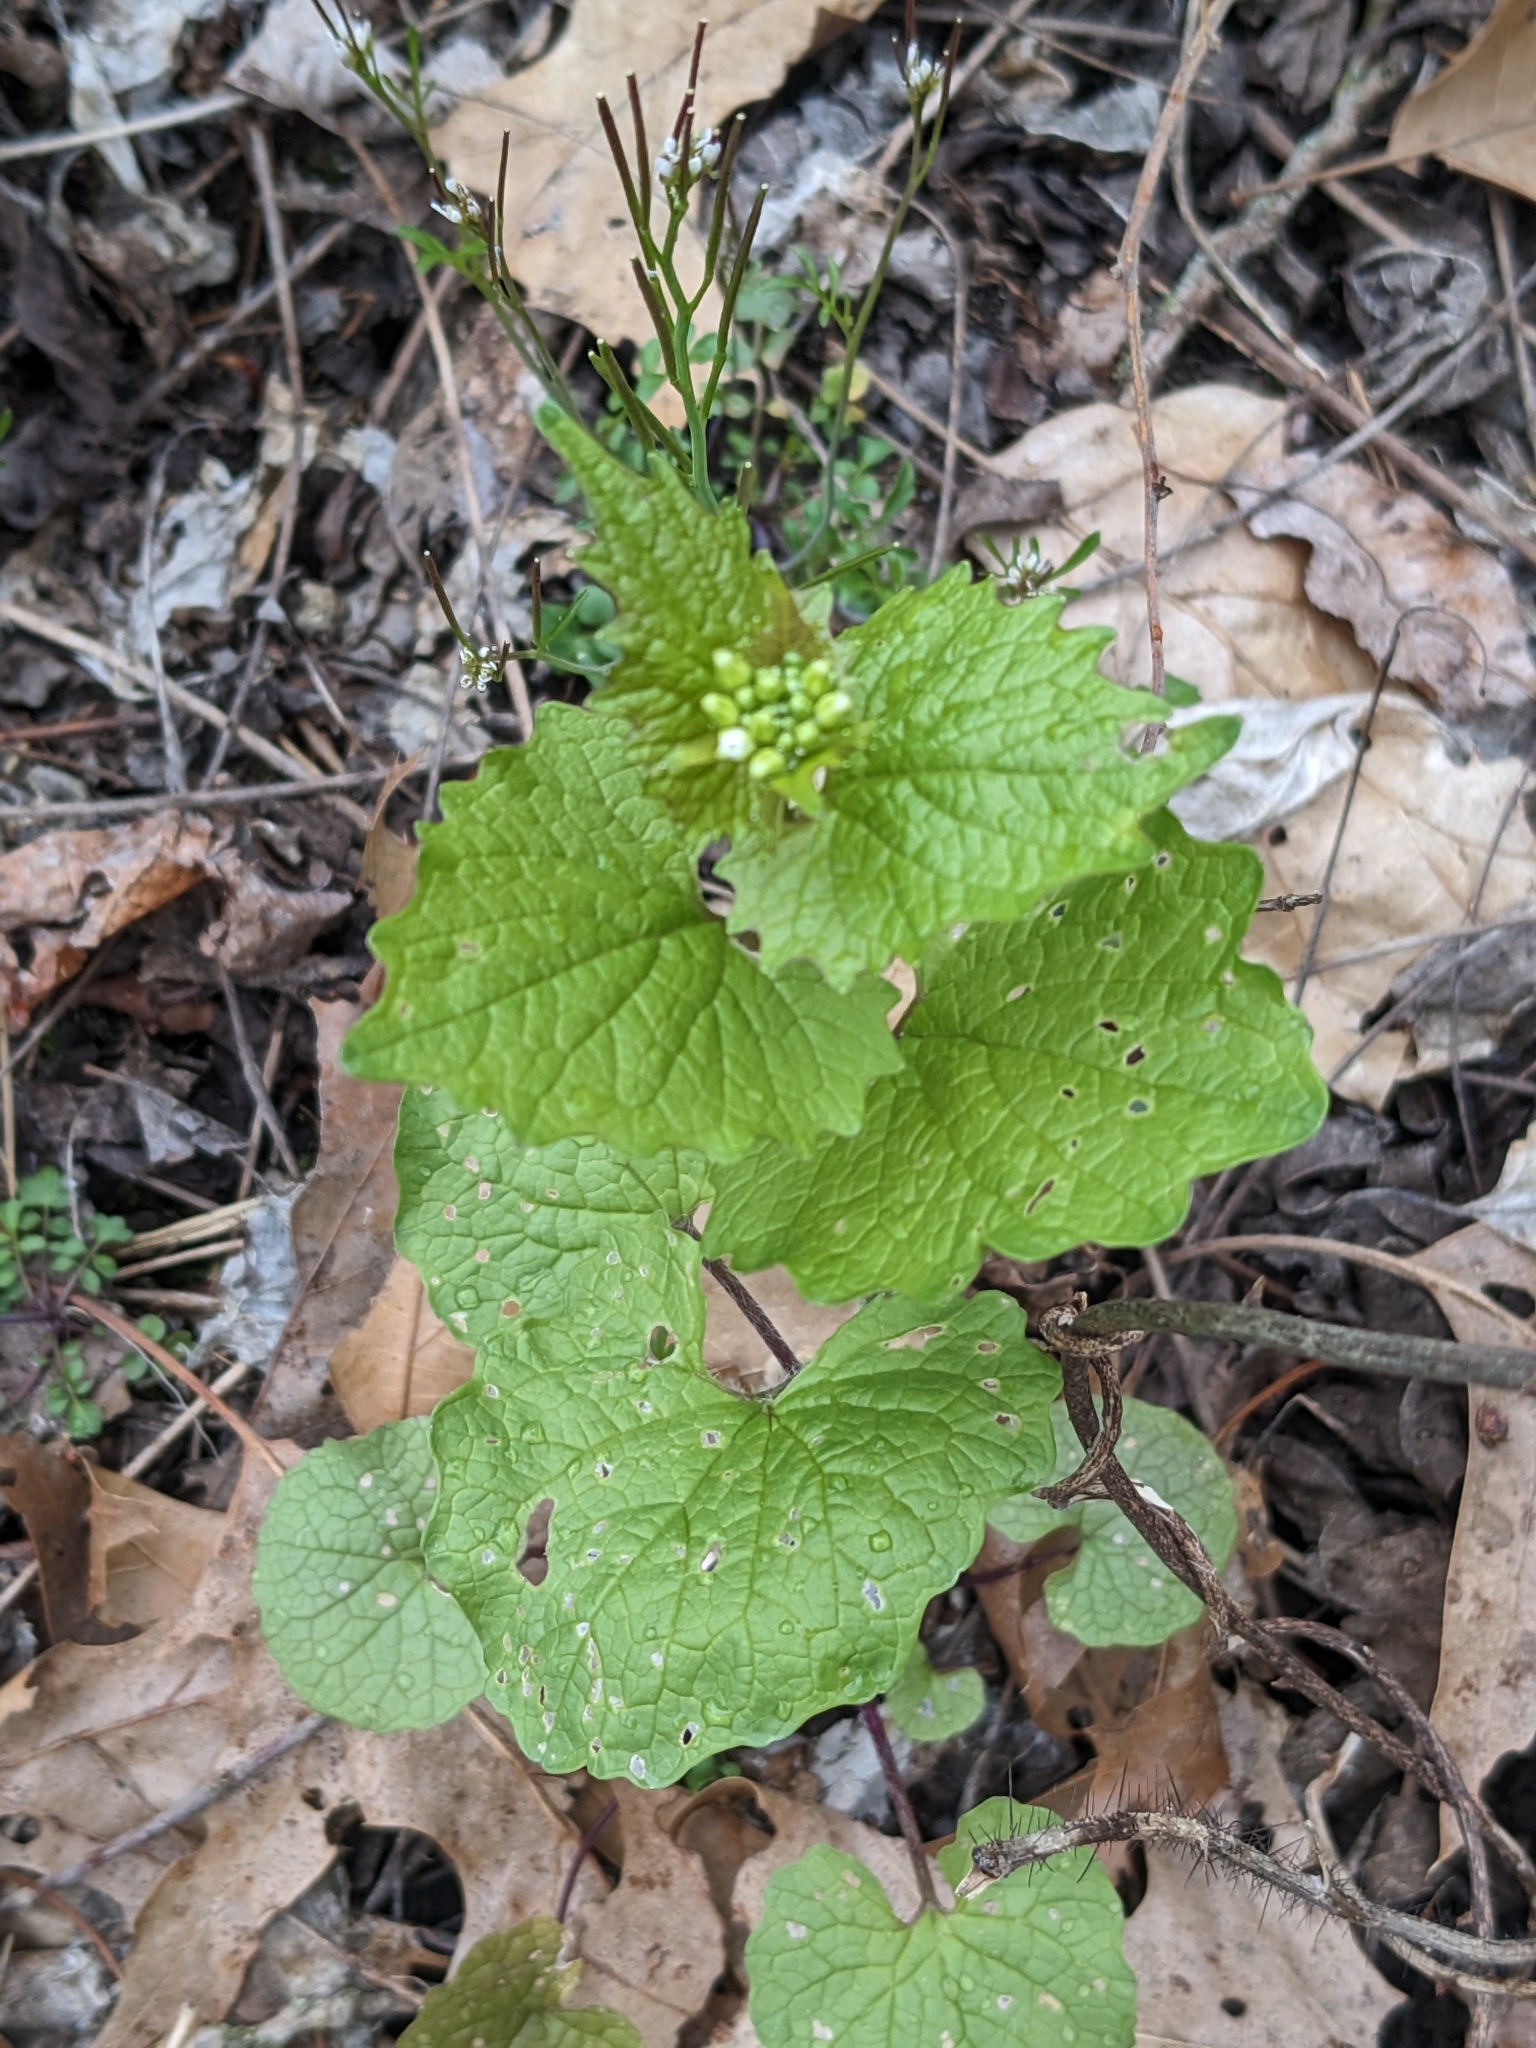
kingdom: Plantae
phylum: Tracheophyta
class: Magnoliopsida
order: Brassicales
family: Brassicaceae
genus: Alliaria
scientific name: Alliaria petiolata
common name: Garlic mustard
